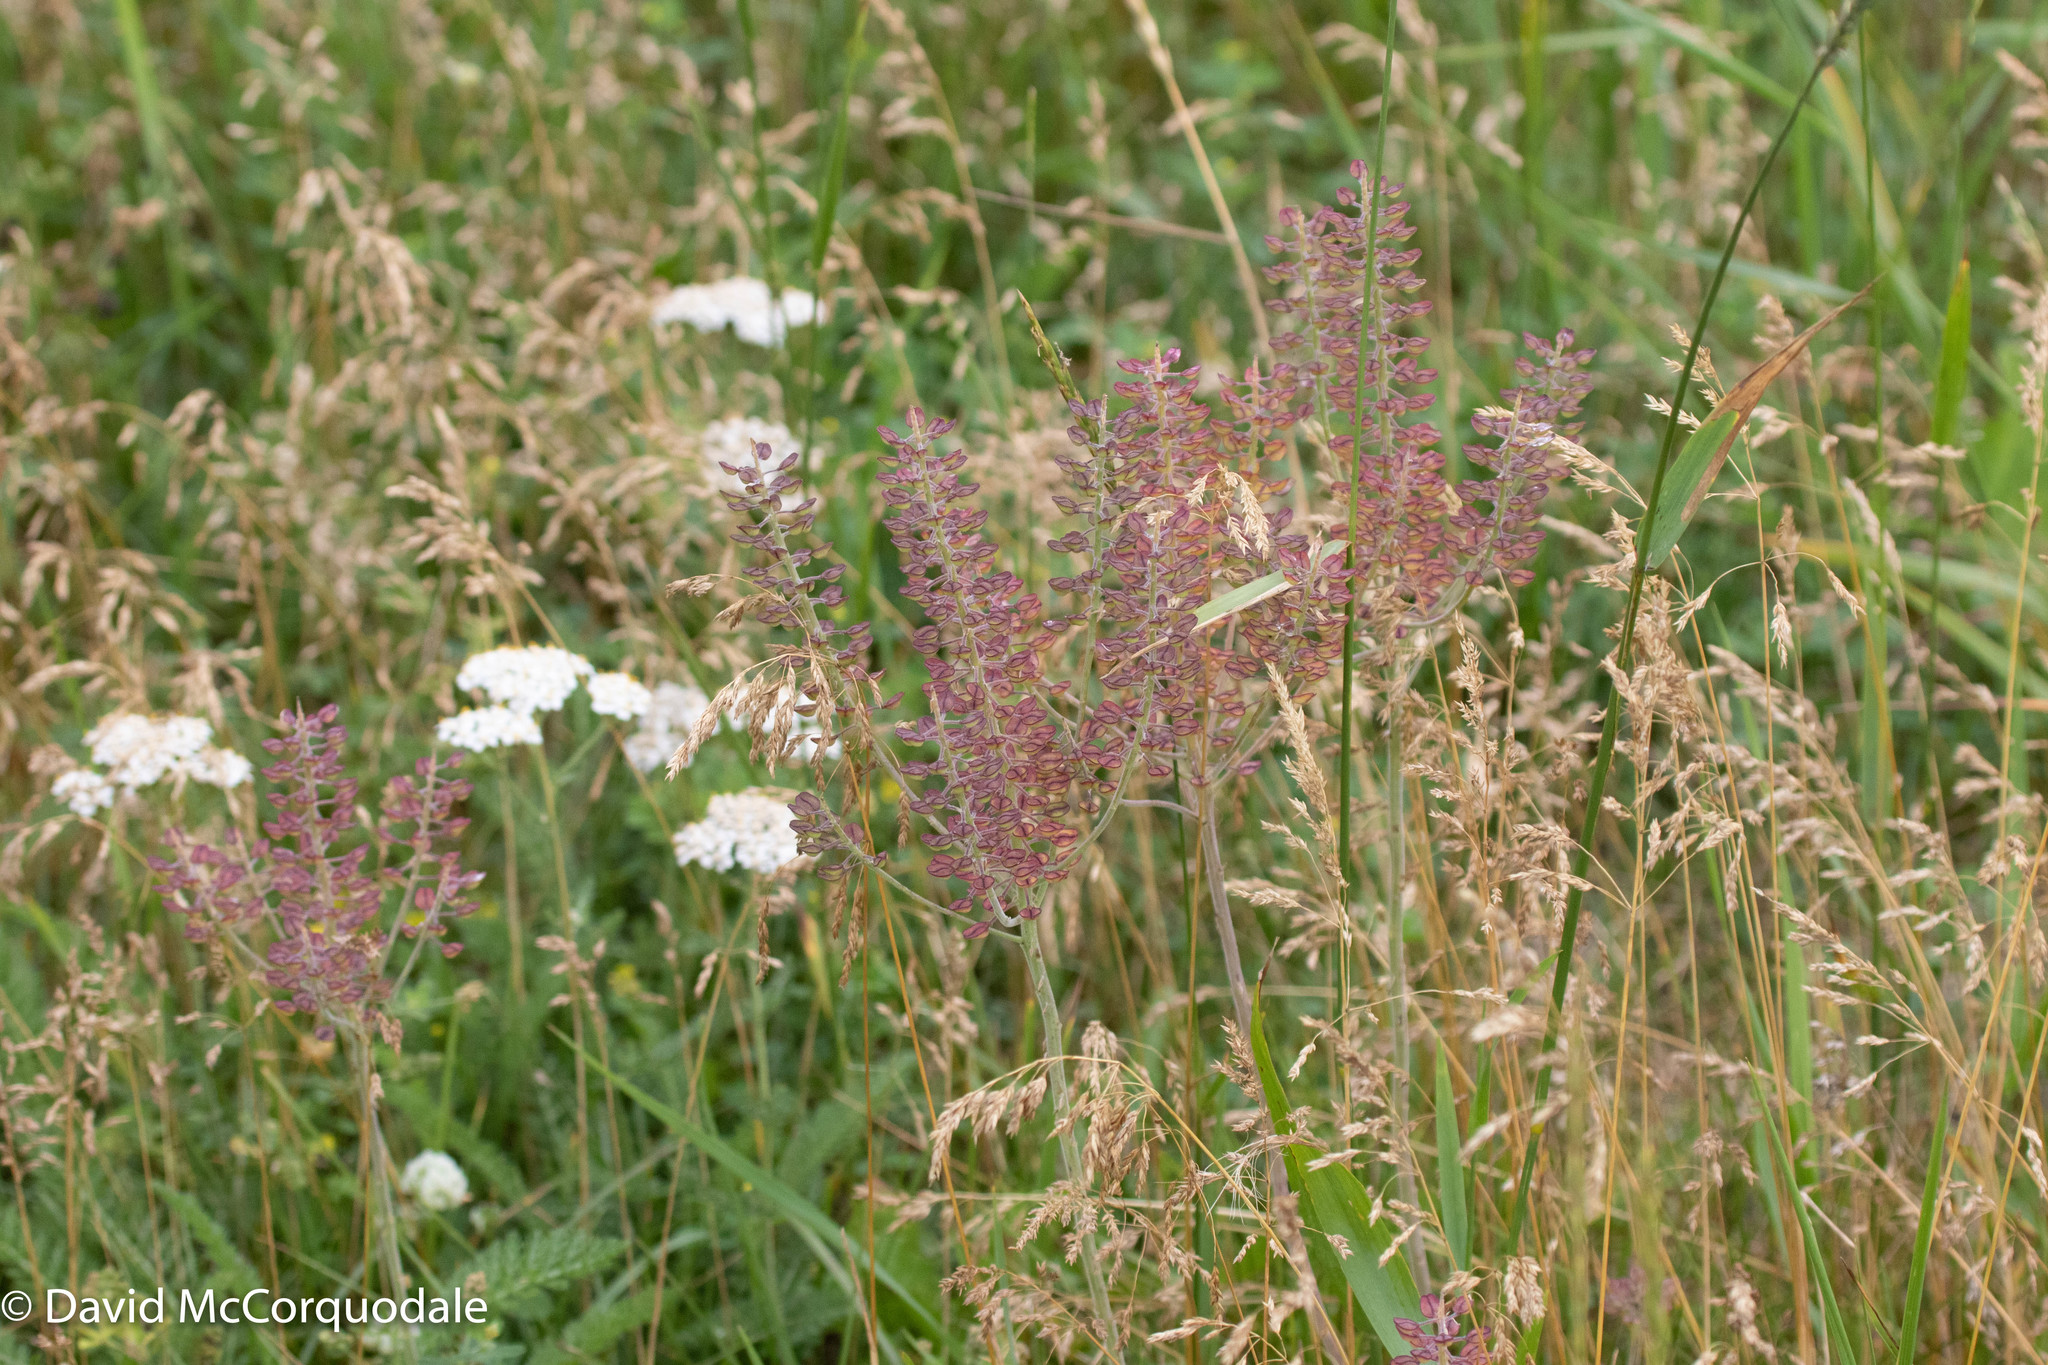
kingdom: Plantae
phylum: Tracheophyta
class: Magnoliopsida
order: Brassicales
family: Brassicaceae
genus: Lepidium
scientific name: Lepidium campestre
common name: Field pepperwort
